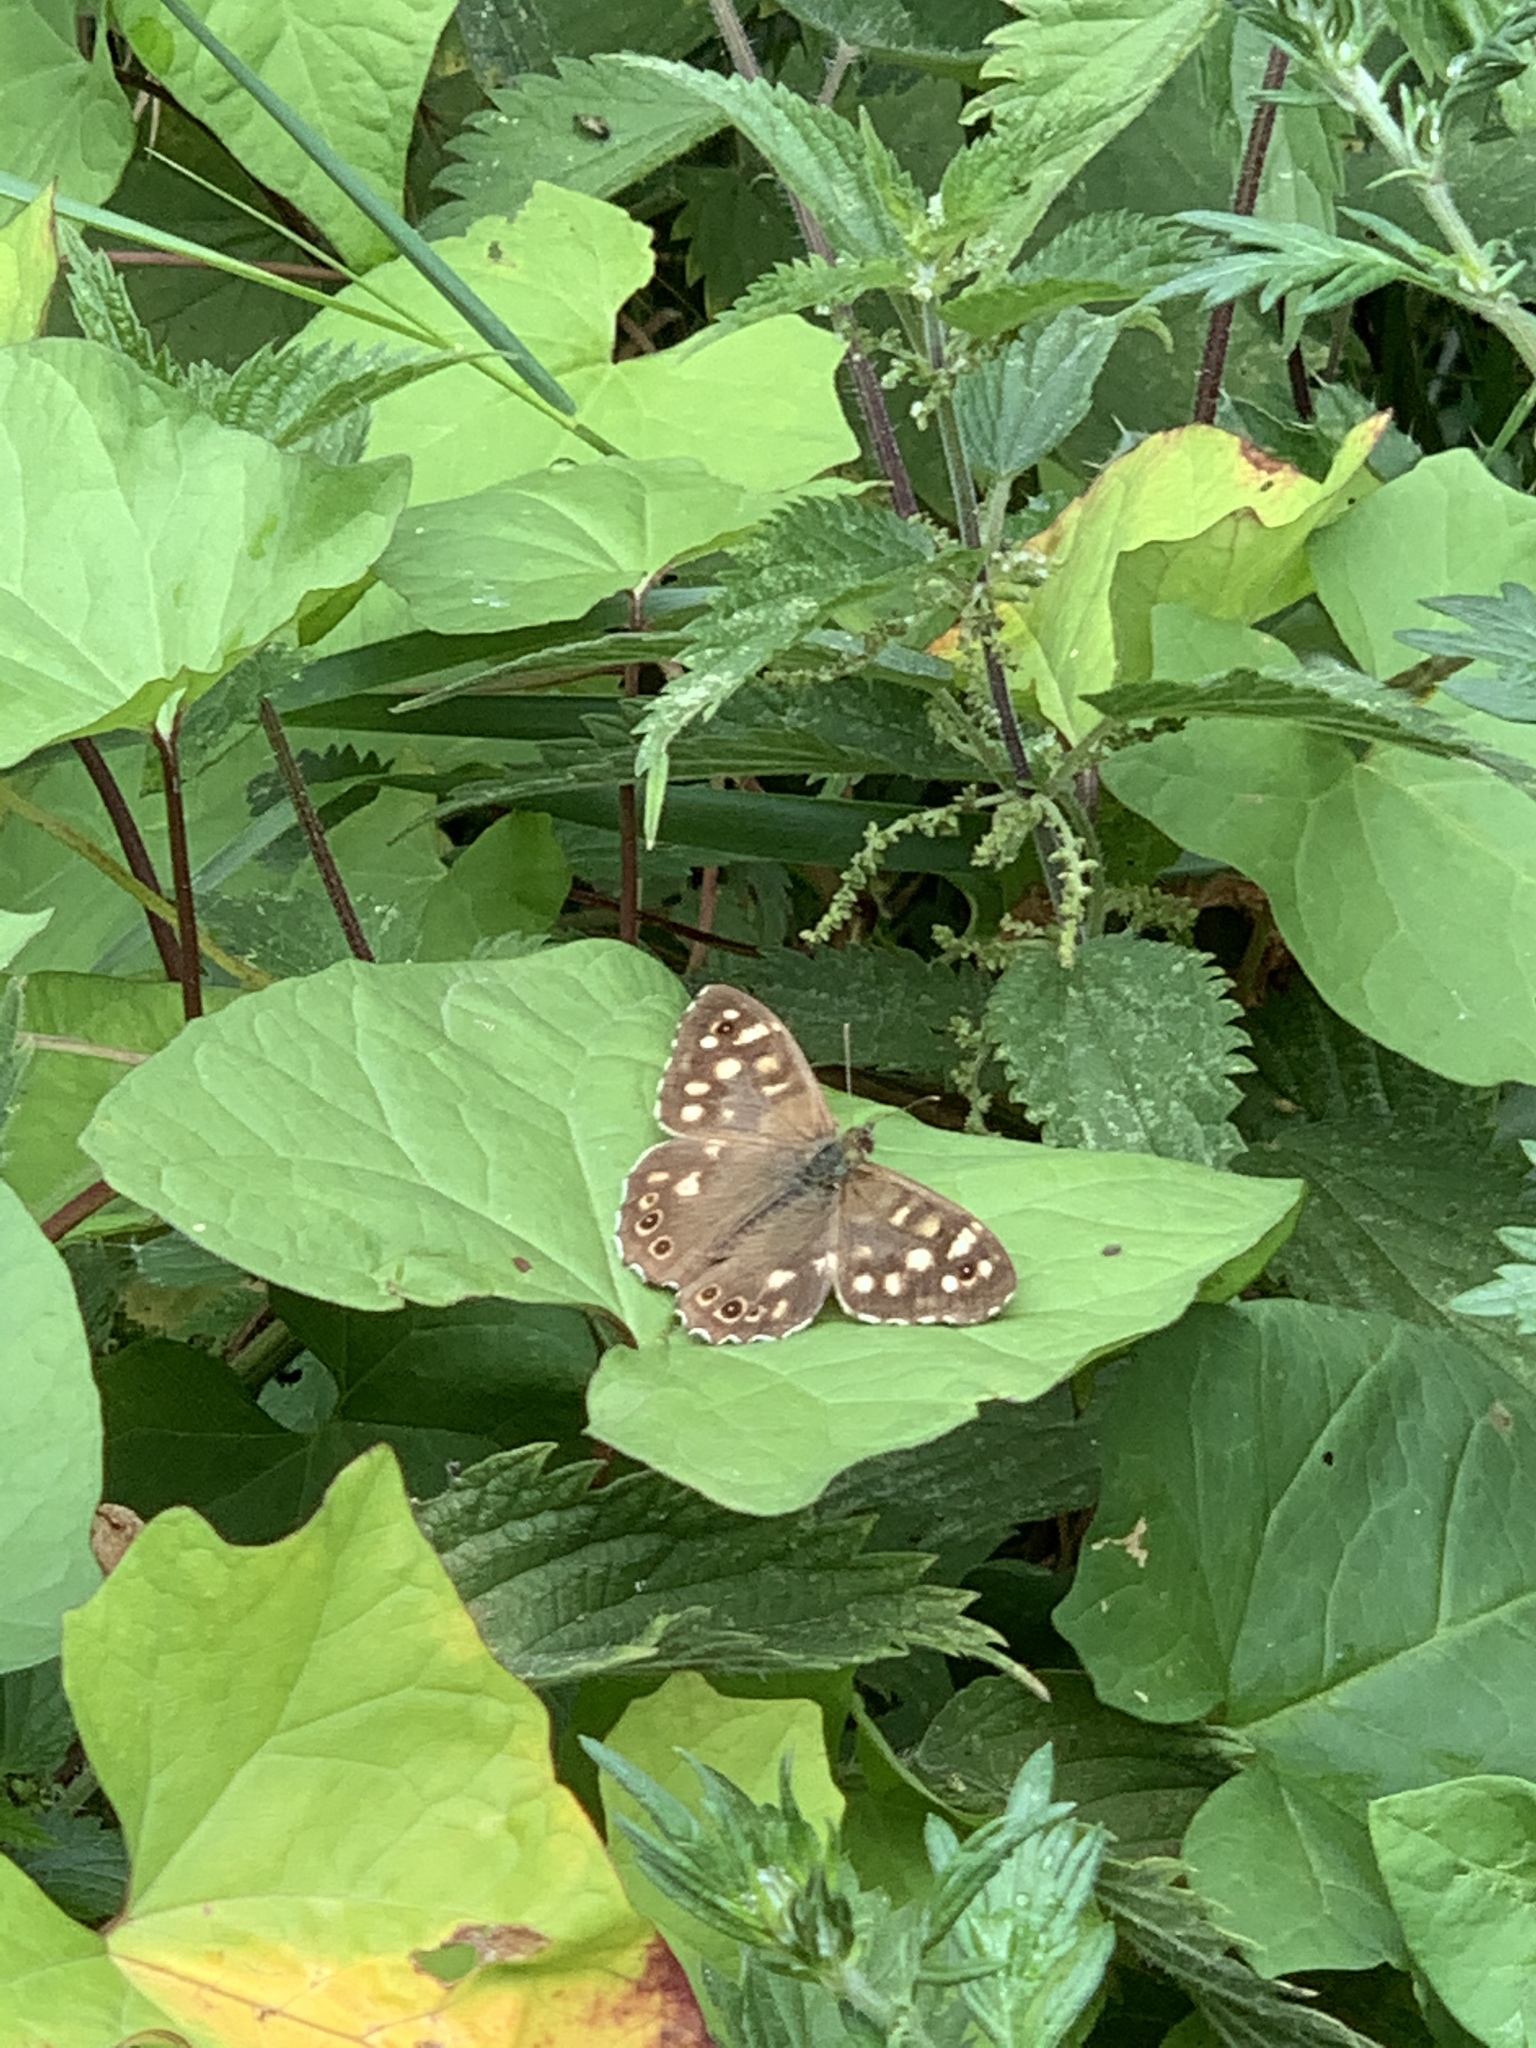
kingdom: Animalia
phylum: Arthropoda
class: Insecta
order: Lepidoptera
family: Nymphalidae
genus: Pararge
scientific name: Pararge aegeria
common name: Speckled wood
